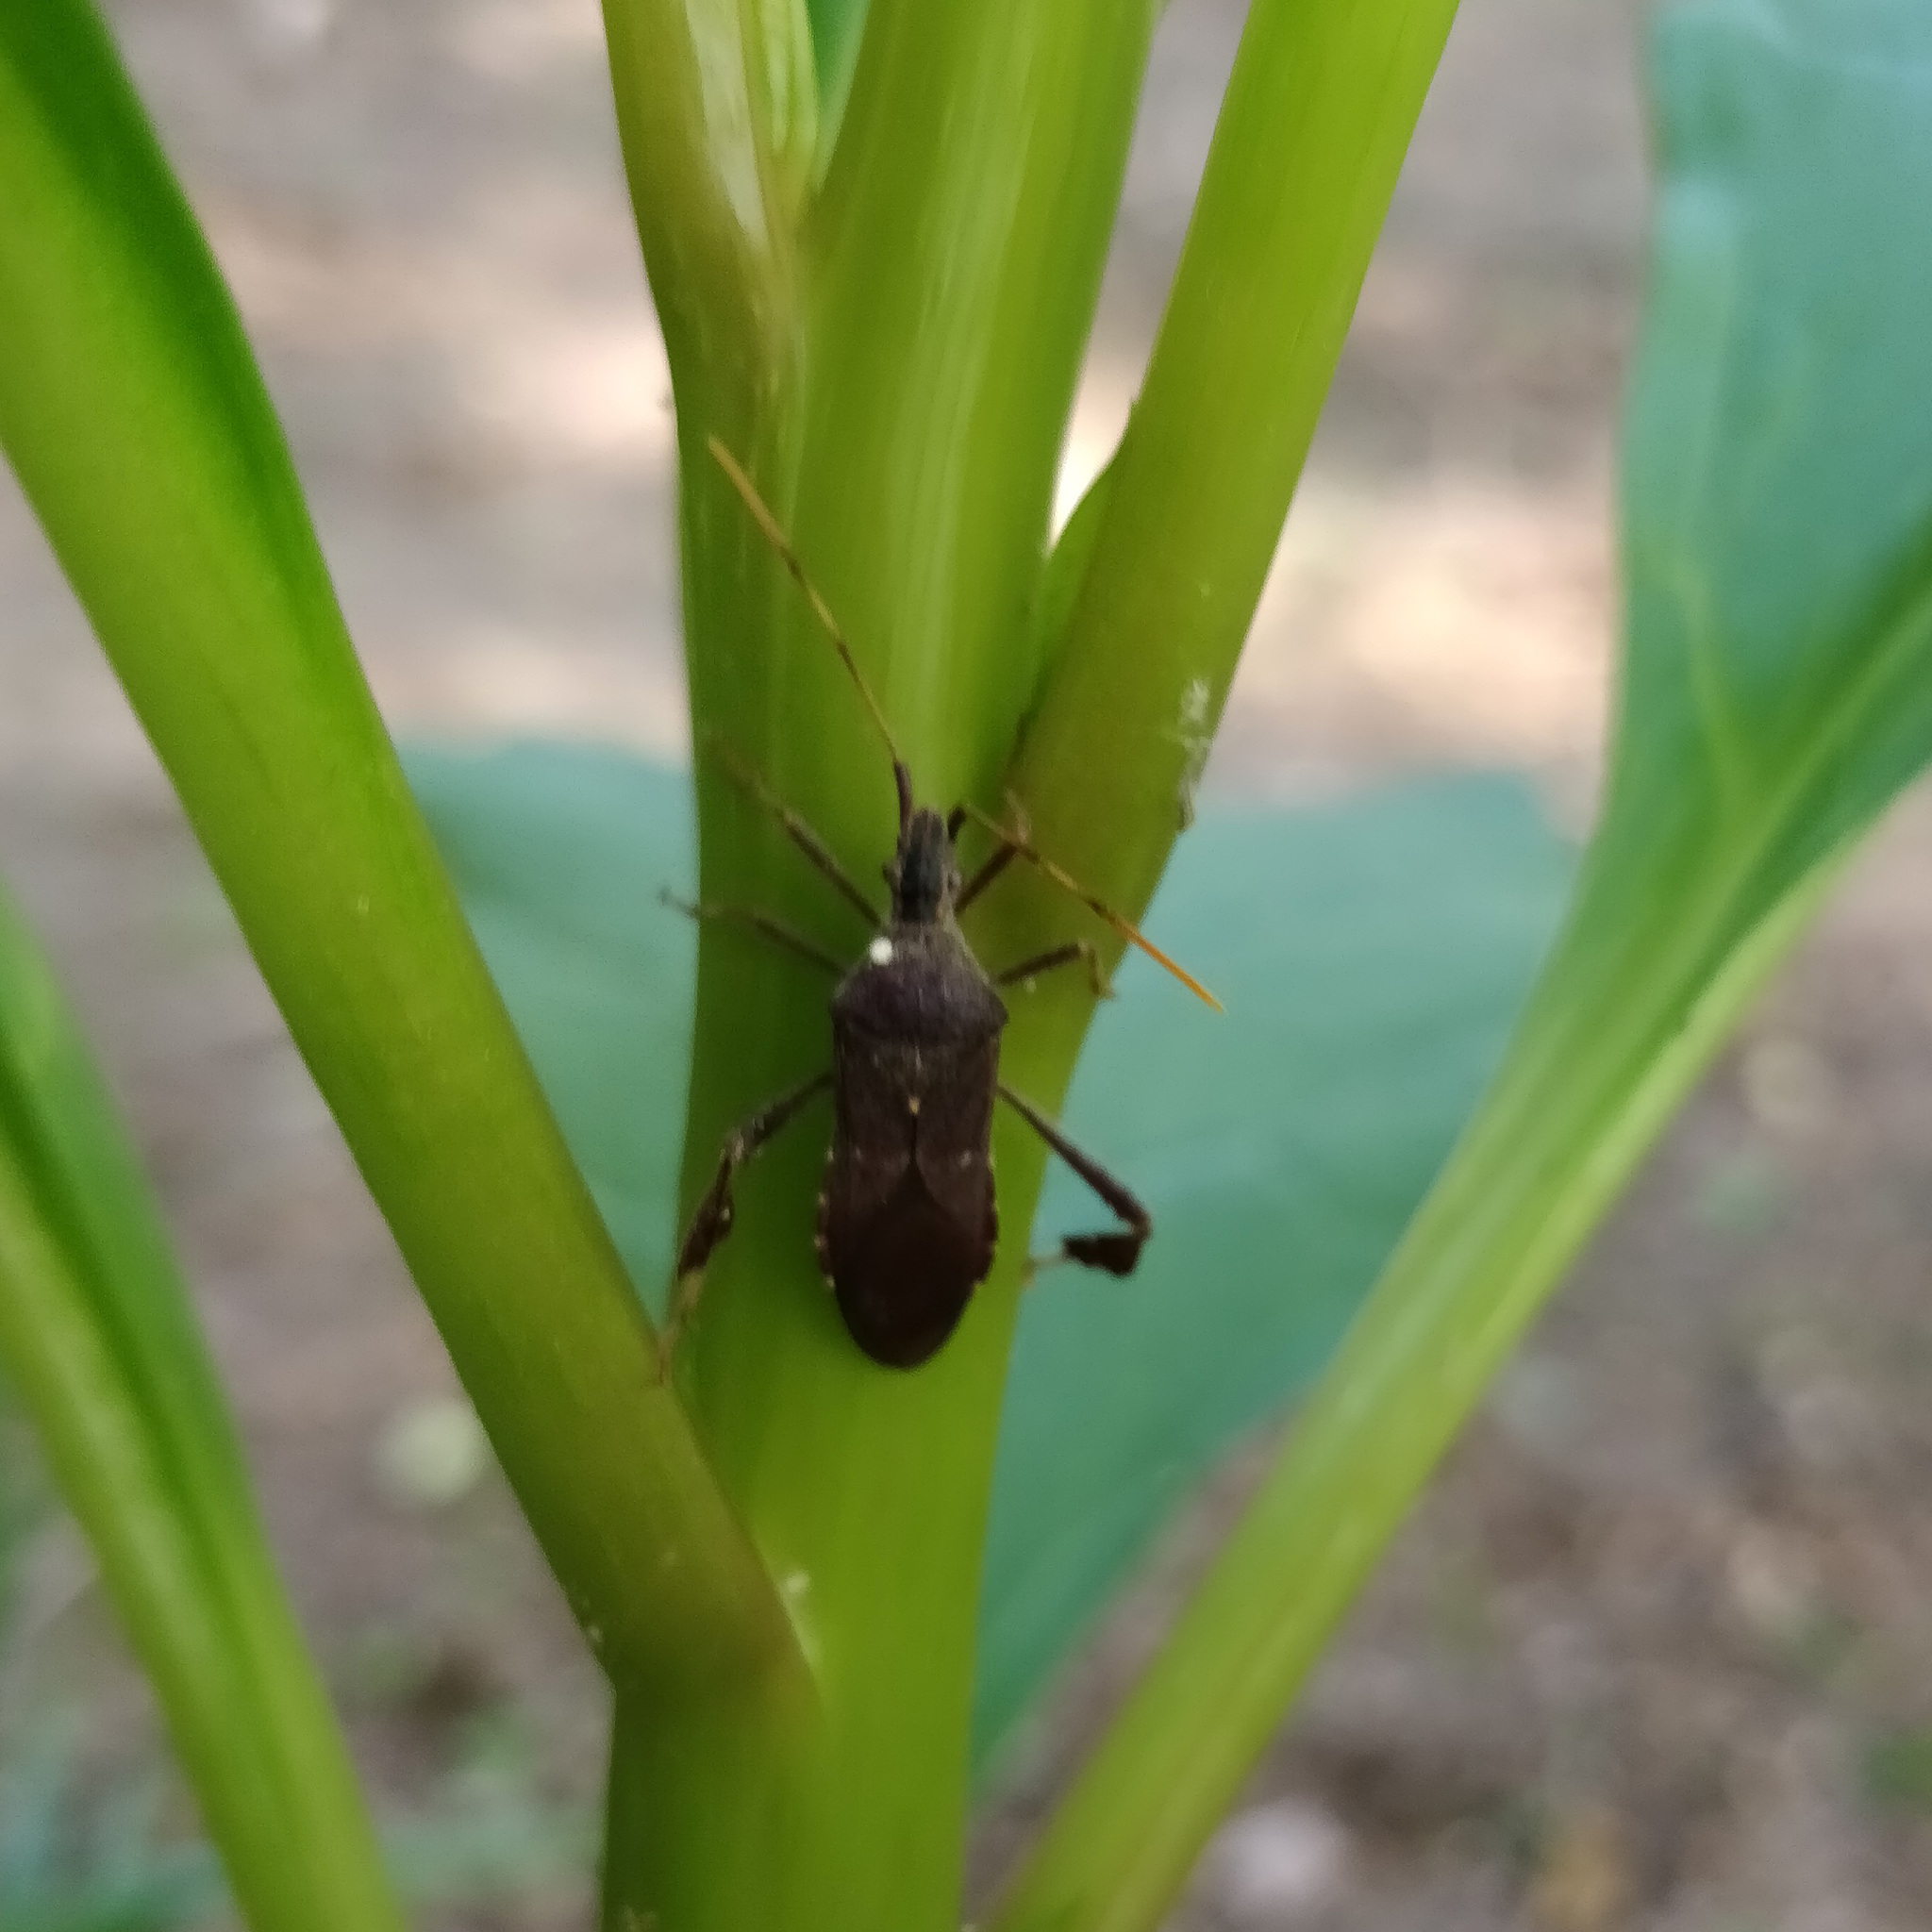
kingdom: Animalia
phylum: Arthropoda
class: Insecta
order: Hemiptera
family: Coreidae
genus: Leptoglossus
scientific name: Leptoglossus oppositus
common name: Northern leaf-footed bug
